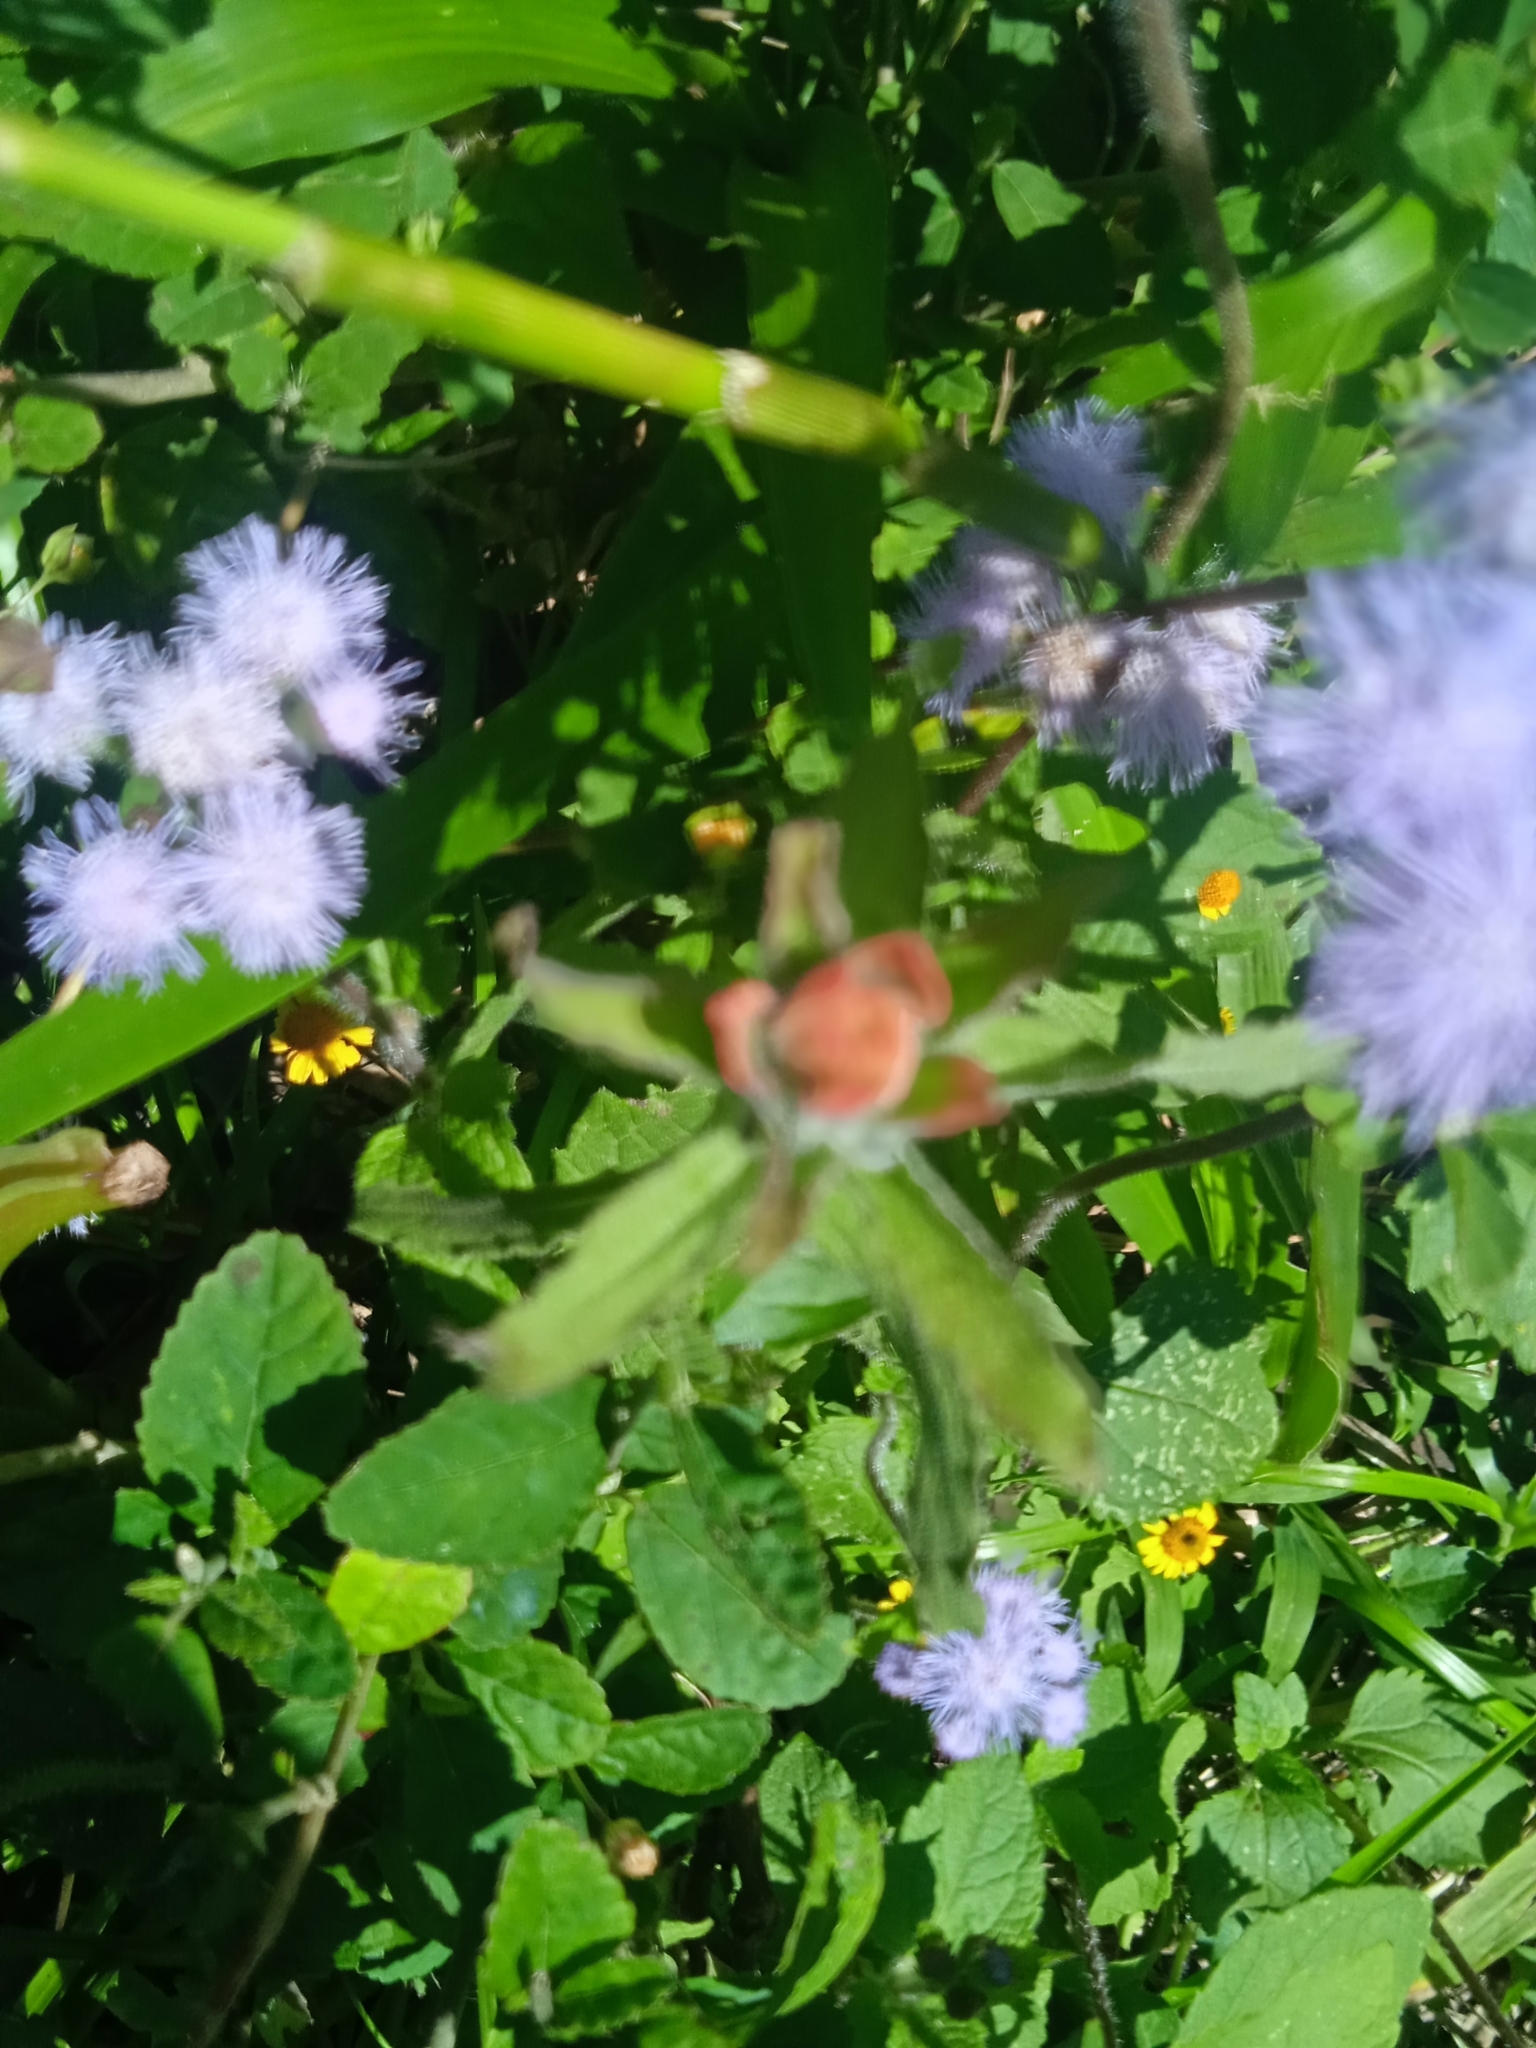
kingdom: Plantae
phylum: Tracheophyta
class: Magnoliopsida
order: Lamiales
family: Orobanchaceae
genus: Castilleja
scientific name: Castilleja arvensis
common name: Indian paintbrush
